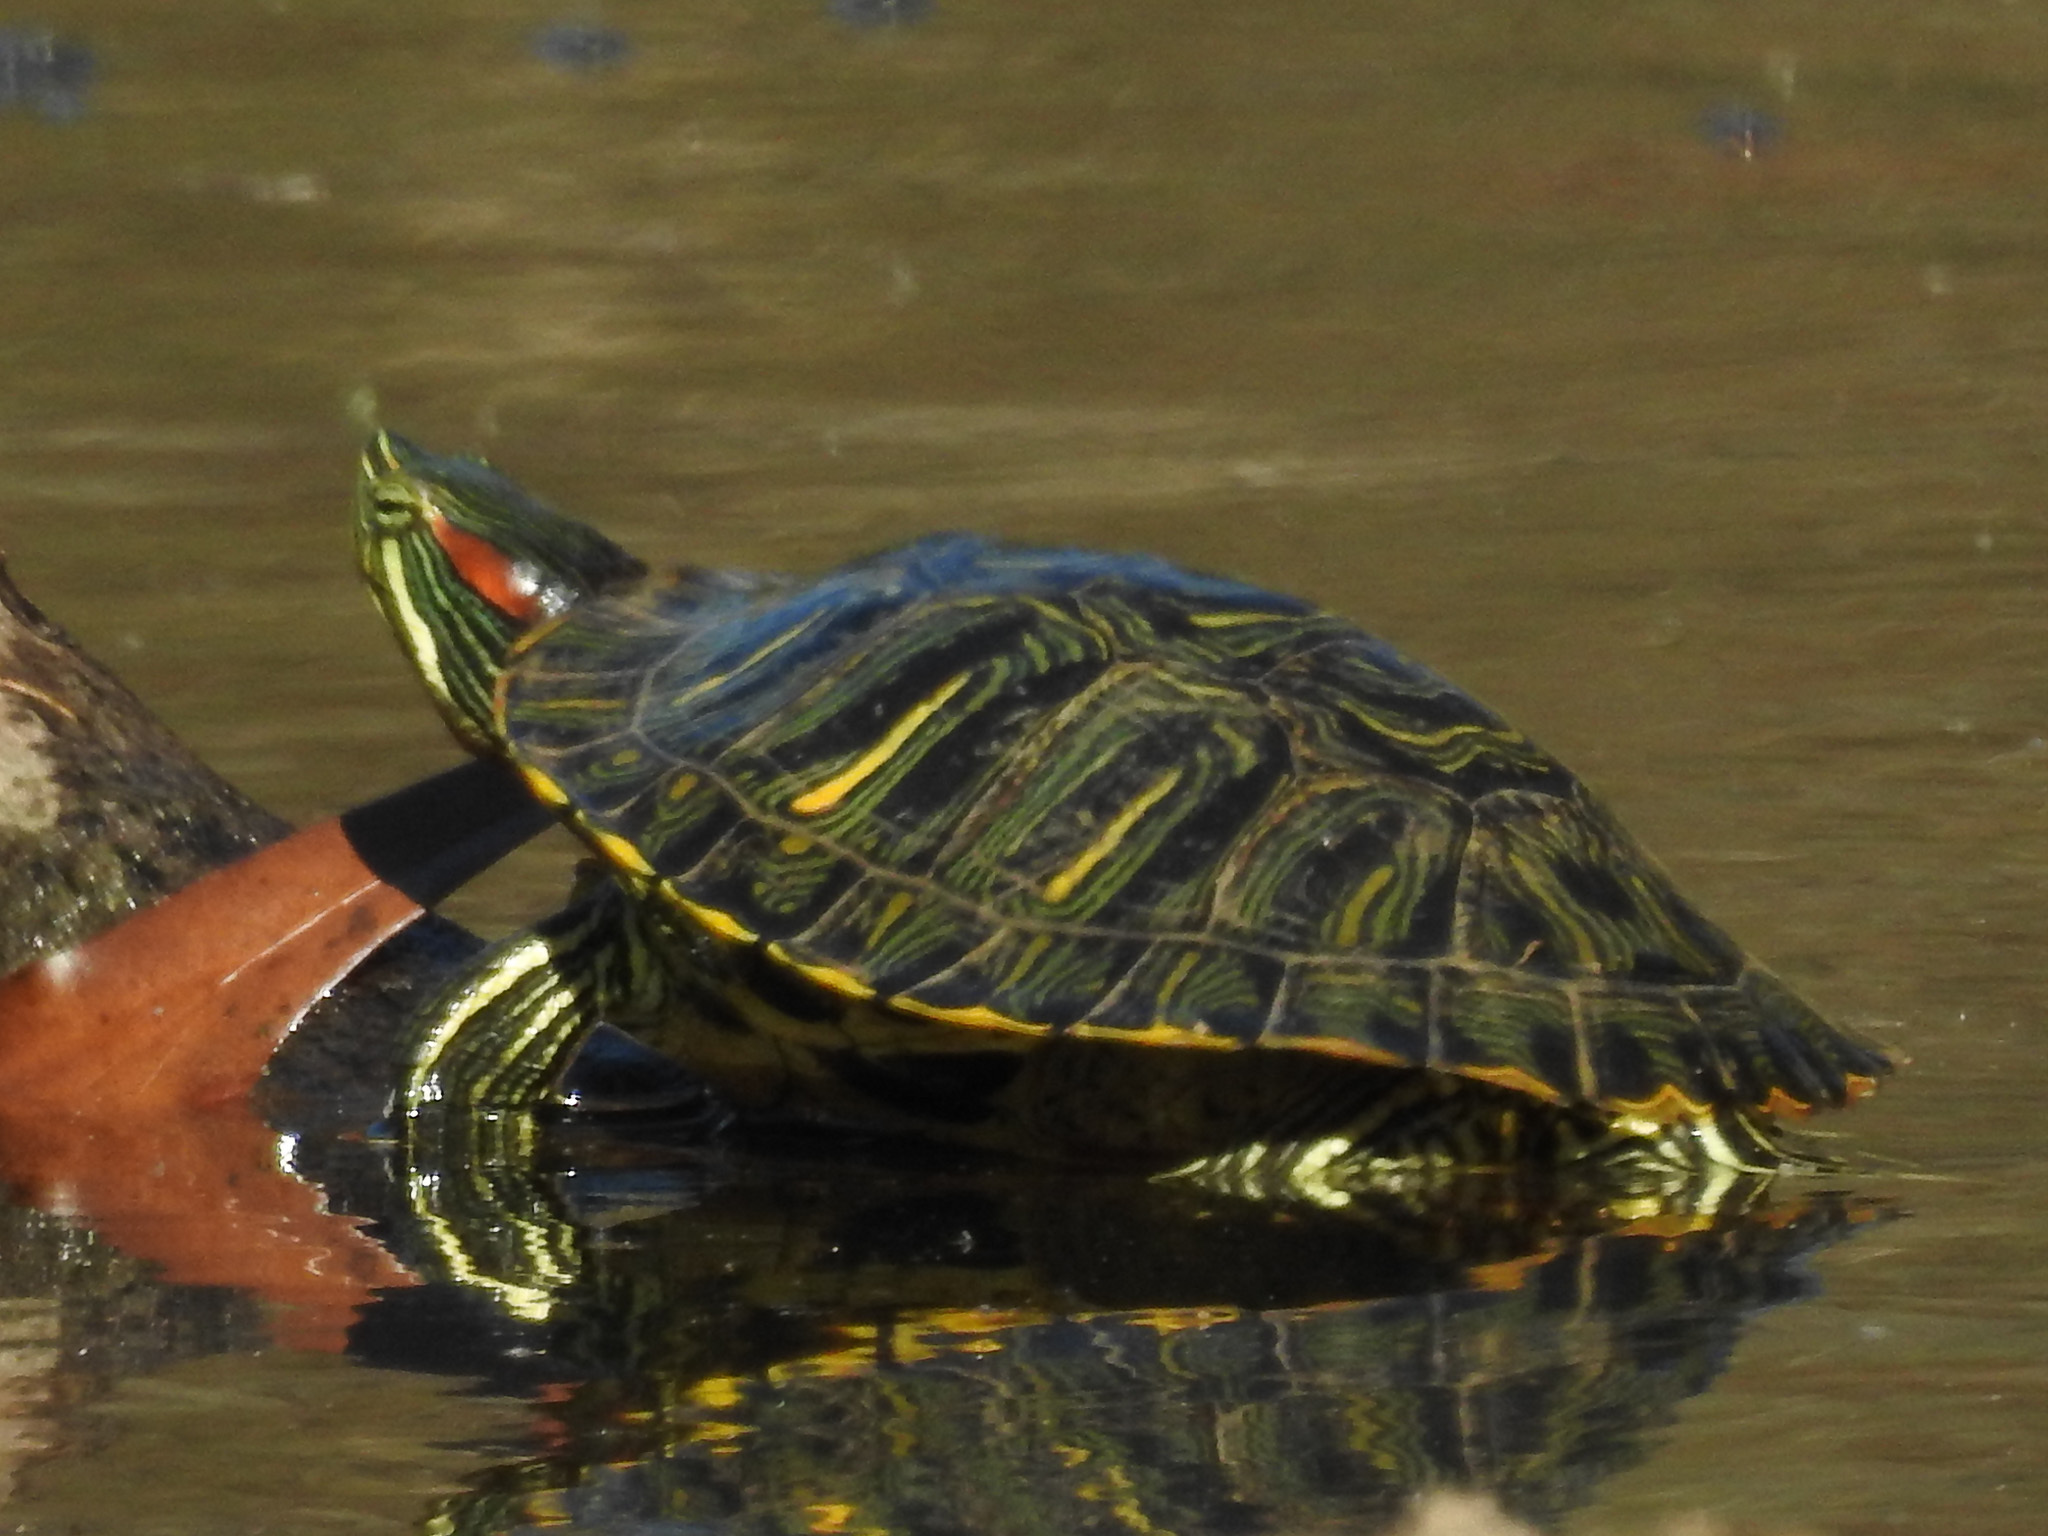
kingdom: Animalia
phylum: Chordata
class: Testudines
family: Emydidae
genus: Trachemys
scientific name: Trachemys scripta
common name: Slider
